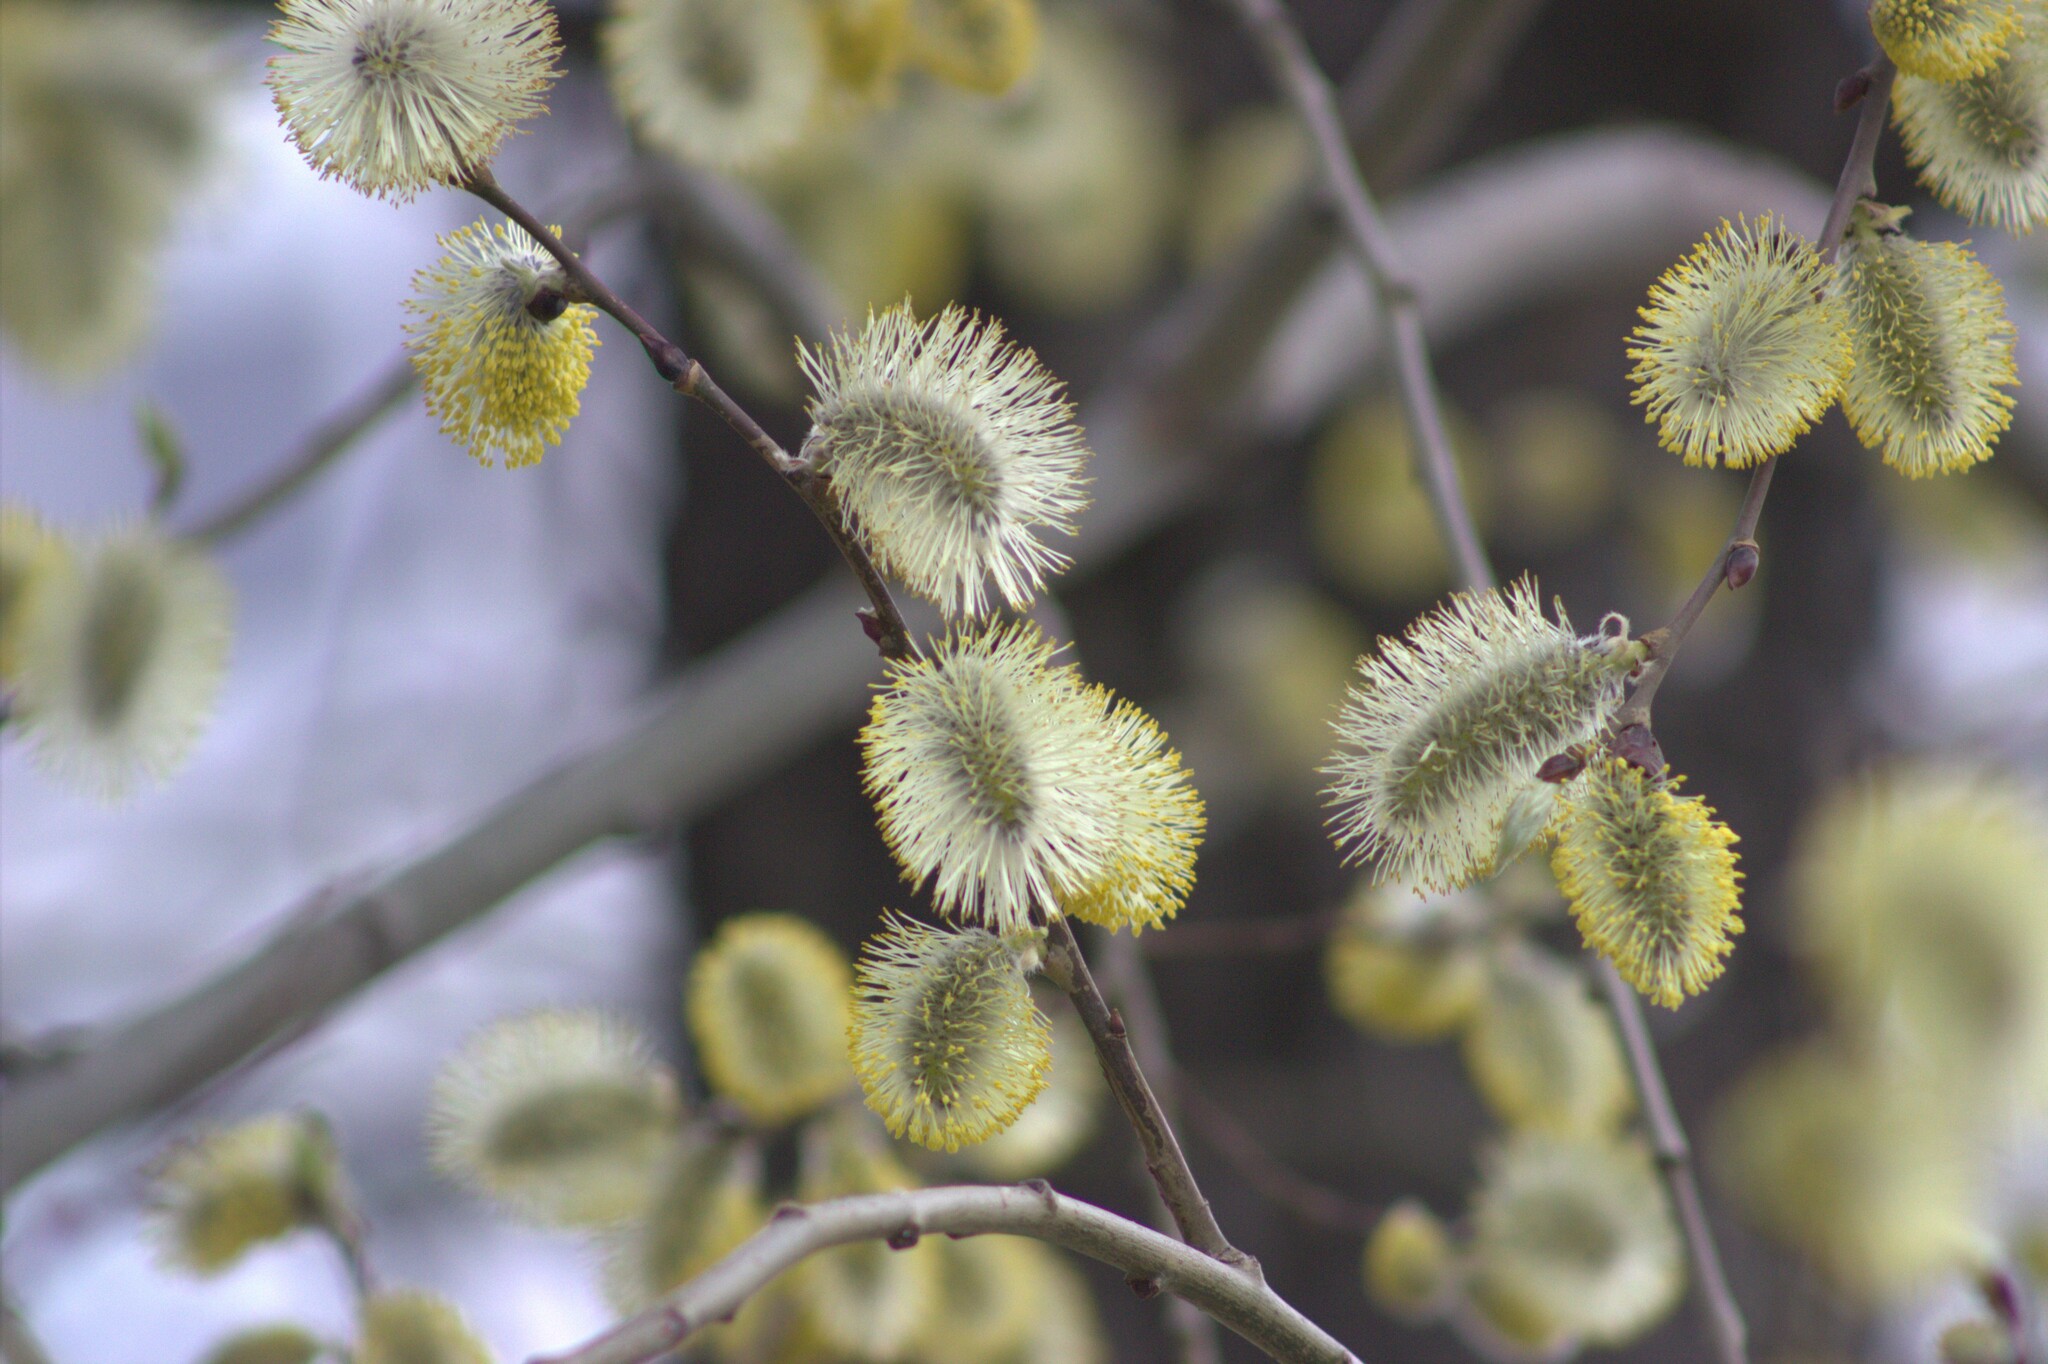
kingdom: Plantae
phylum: Tracheophyta
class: Magnoliopsida
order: Malpighiales
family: Salicaceae
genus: Salix
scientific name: Salix caprea
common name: Goat willow
